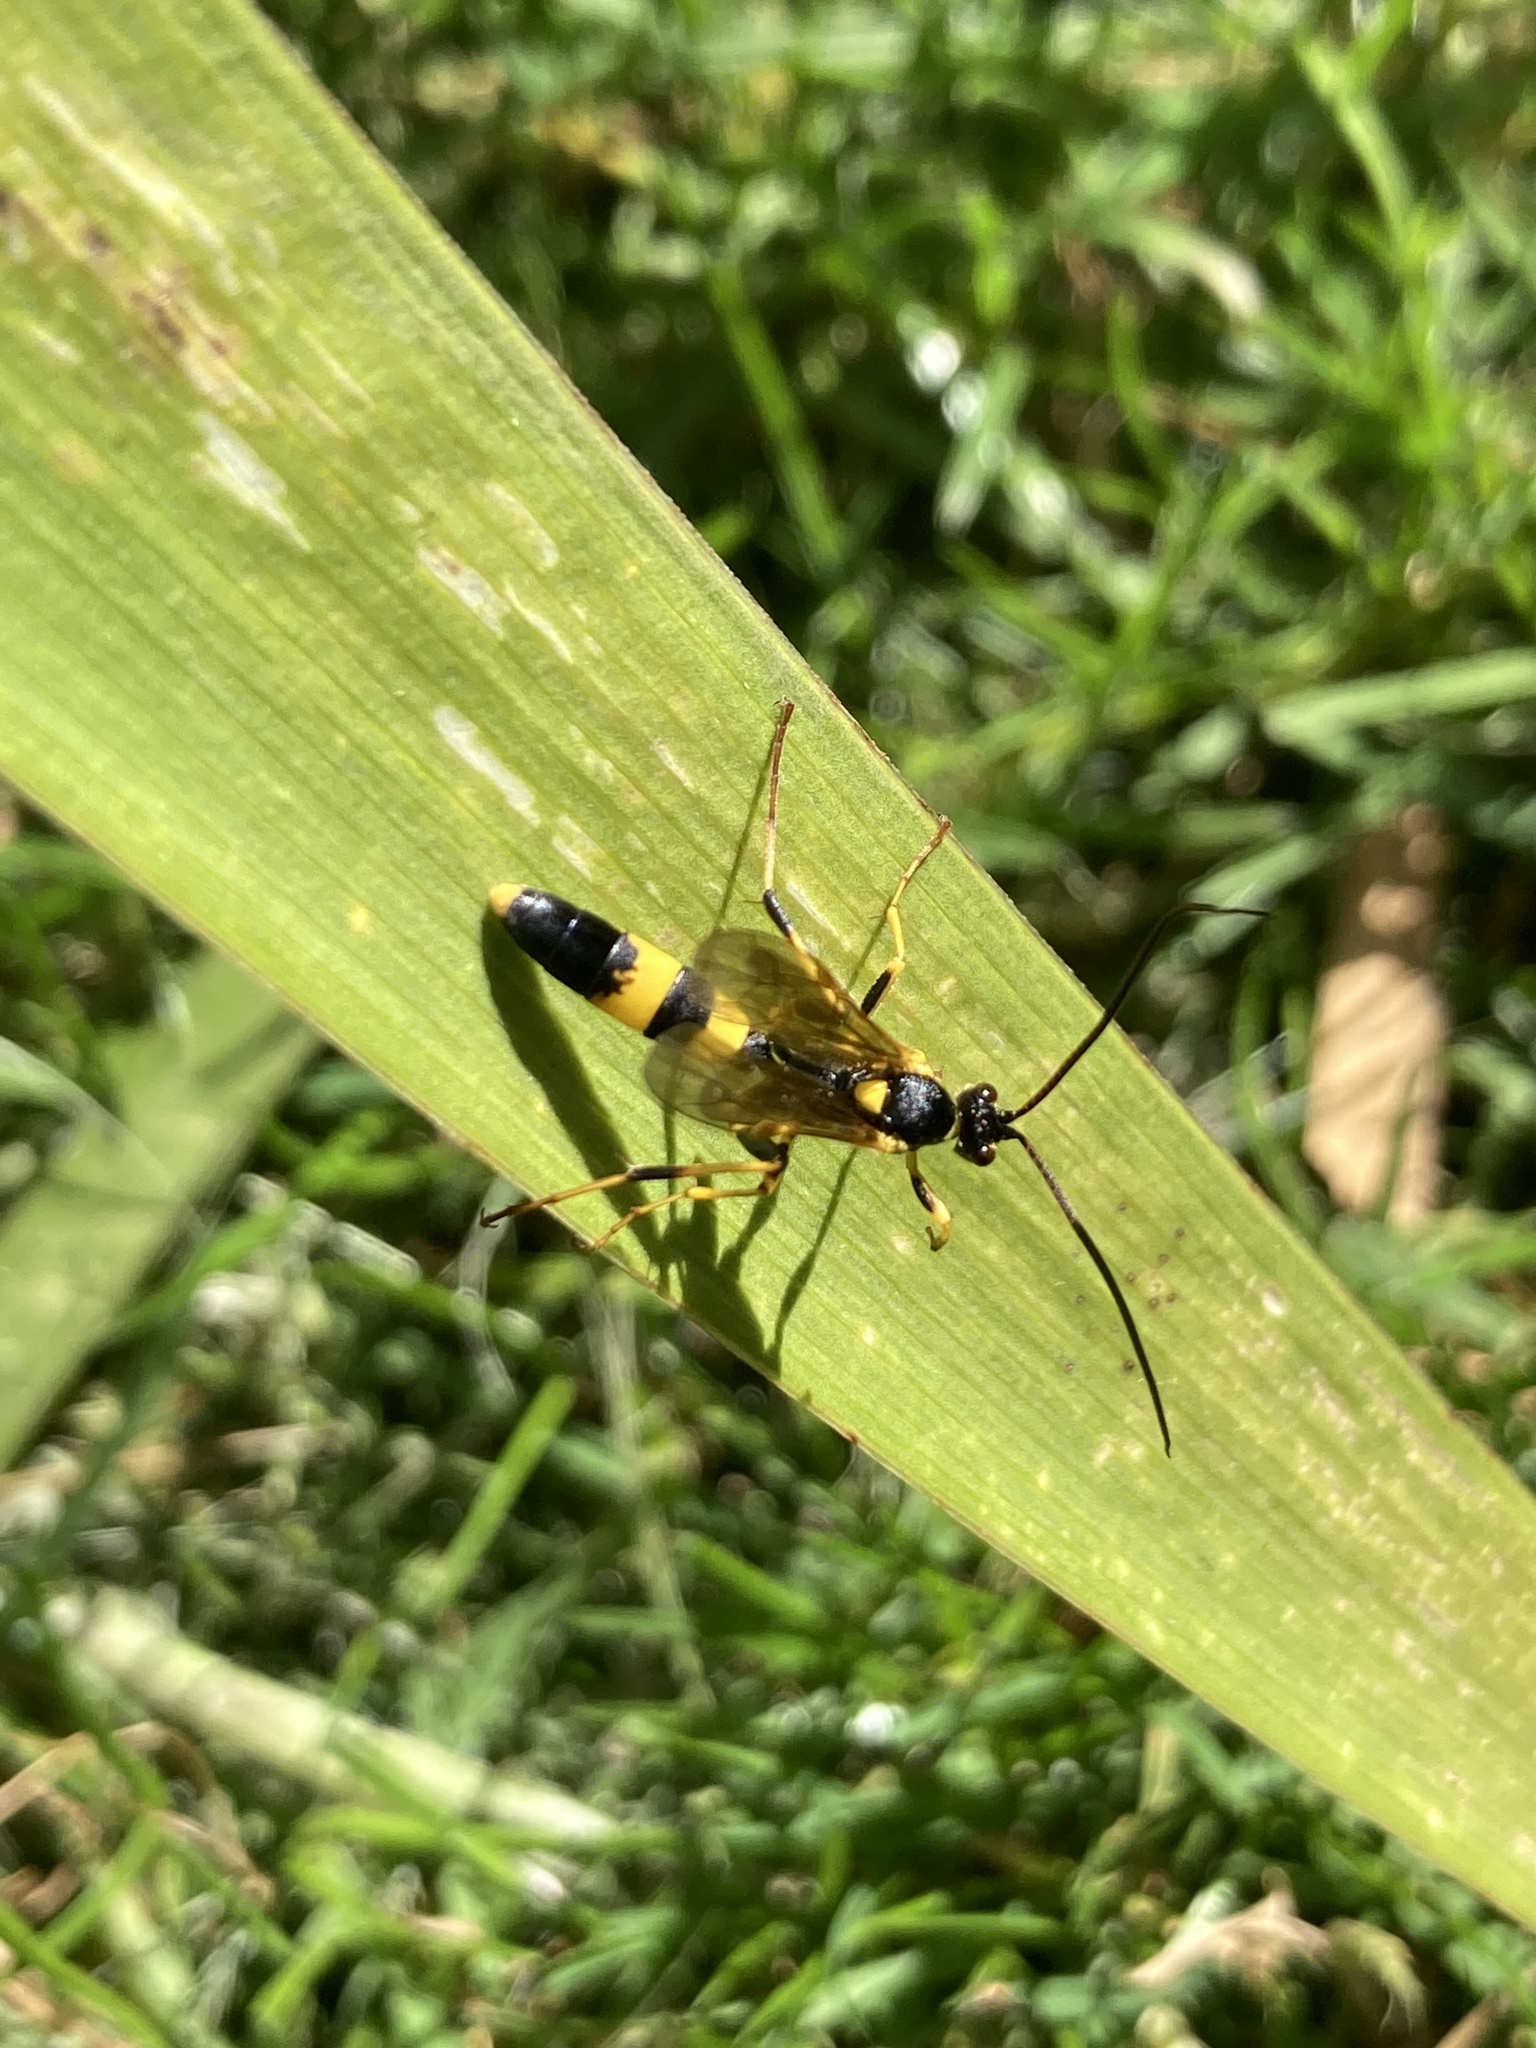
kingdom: Animalia
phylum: Arthropoda
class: Insecta
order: Hymenoptera
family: Ichneumonidae
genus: Amblyteles
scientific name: Amblyteles armatorius
